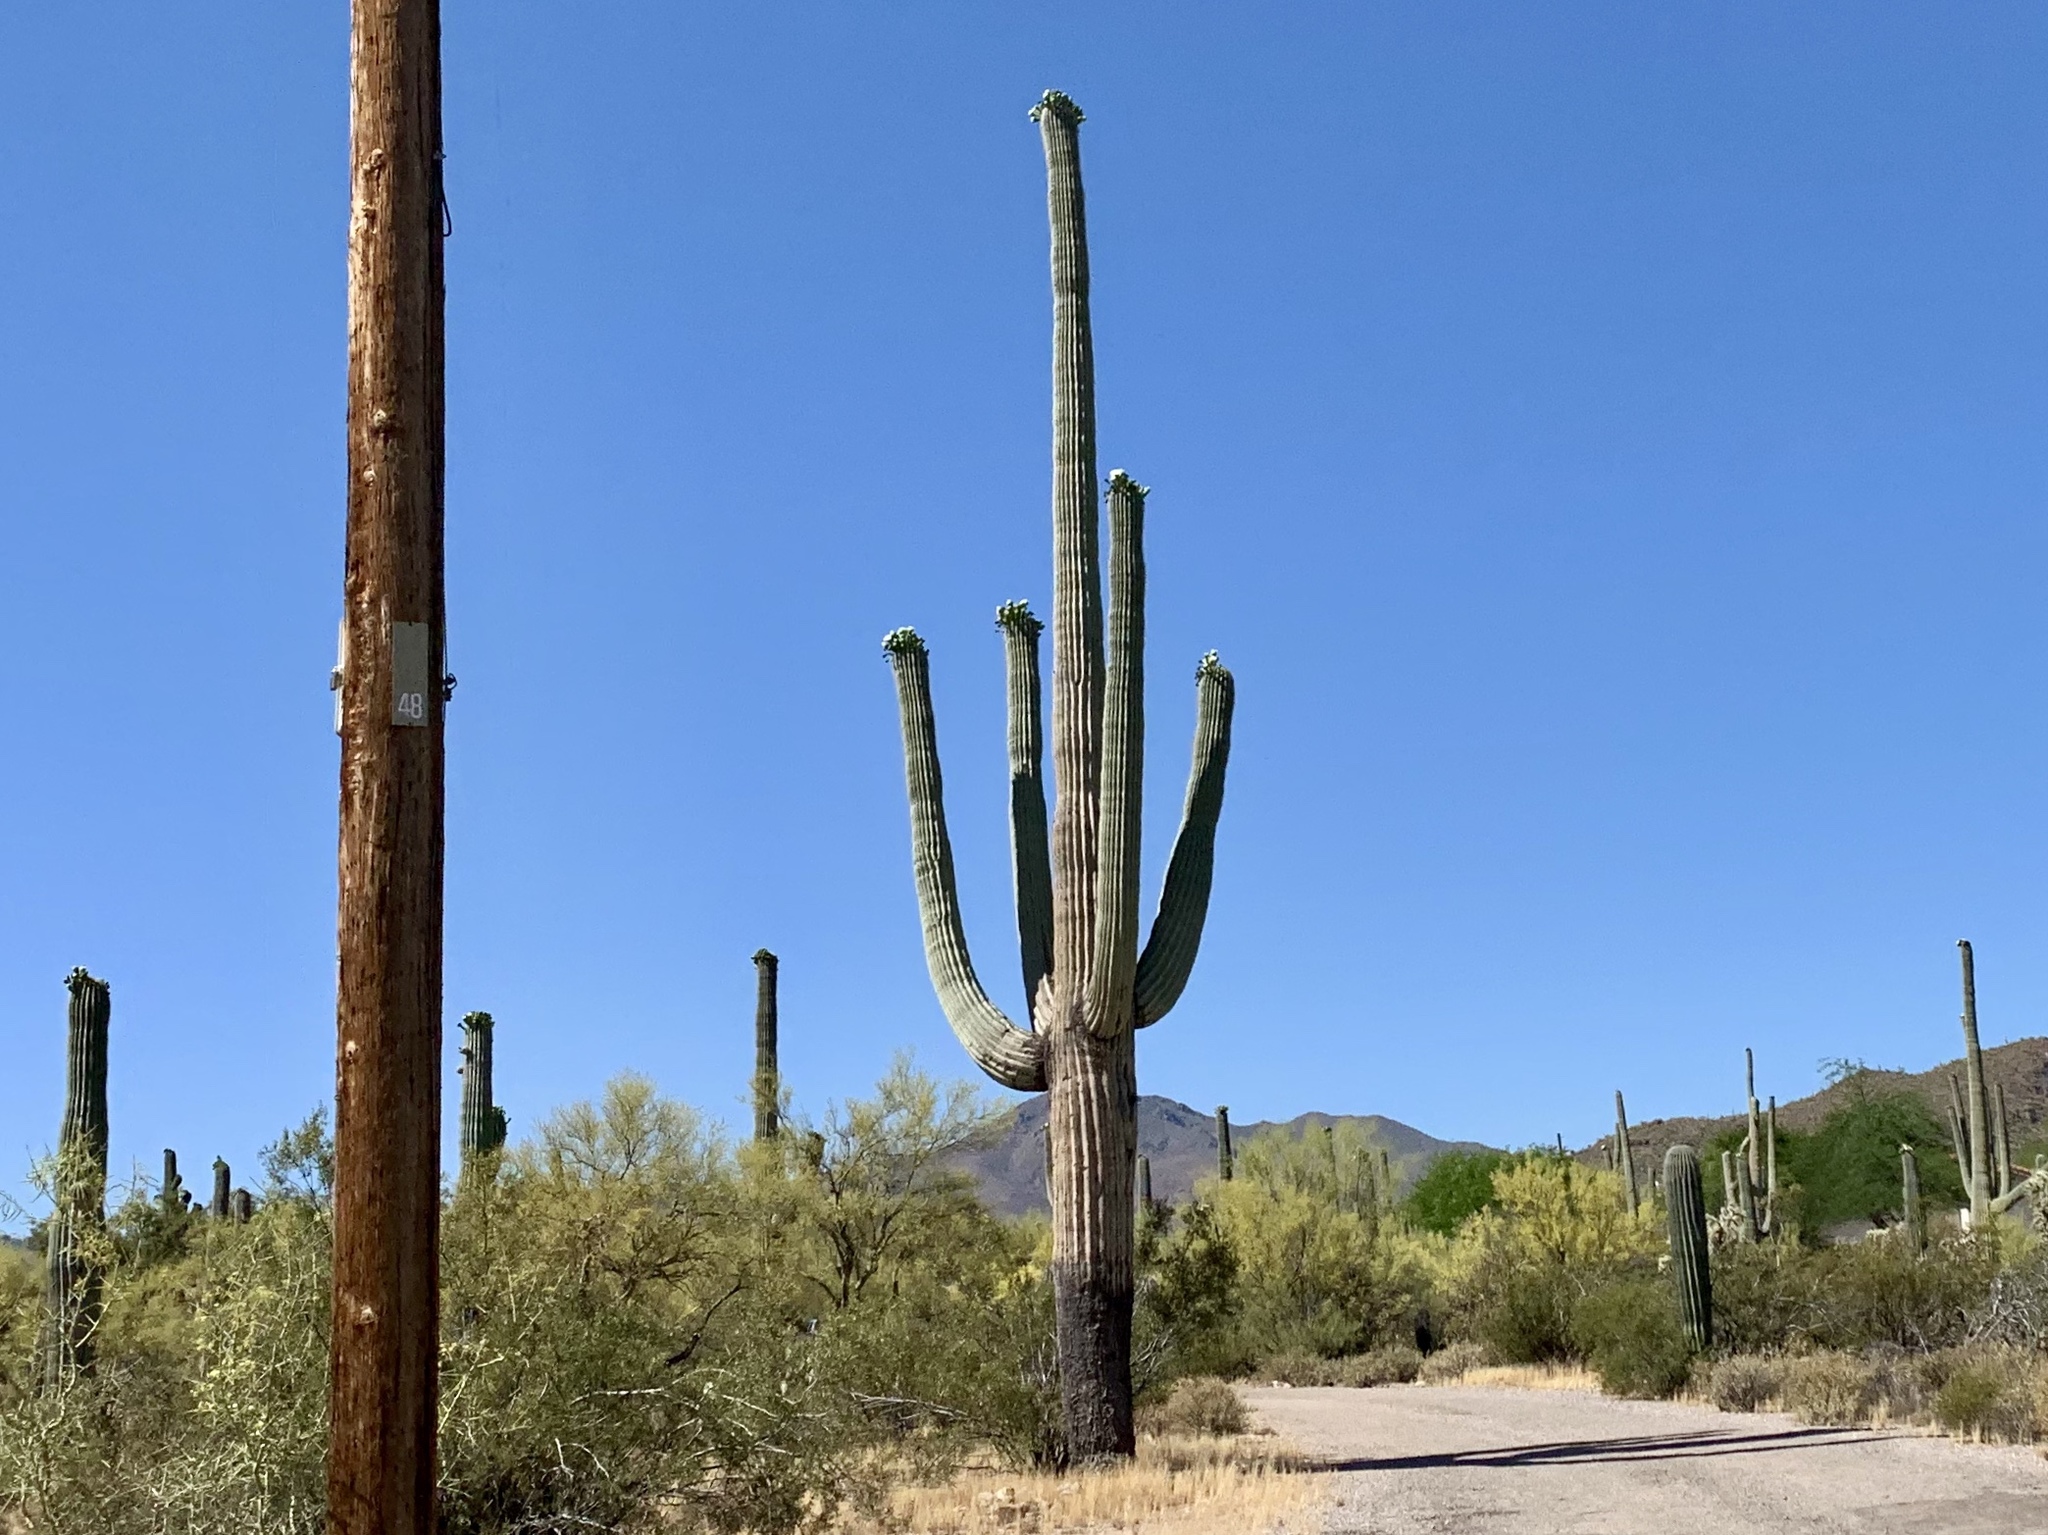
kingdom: Plantae
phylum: Tracheophyta
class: Magnoliopsida
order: Caryophyllales
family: Cactaceae
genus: Carnegiea
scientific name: Carnegiea gigantea
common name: Saguaro
